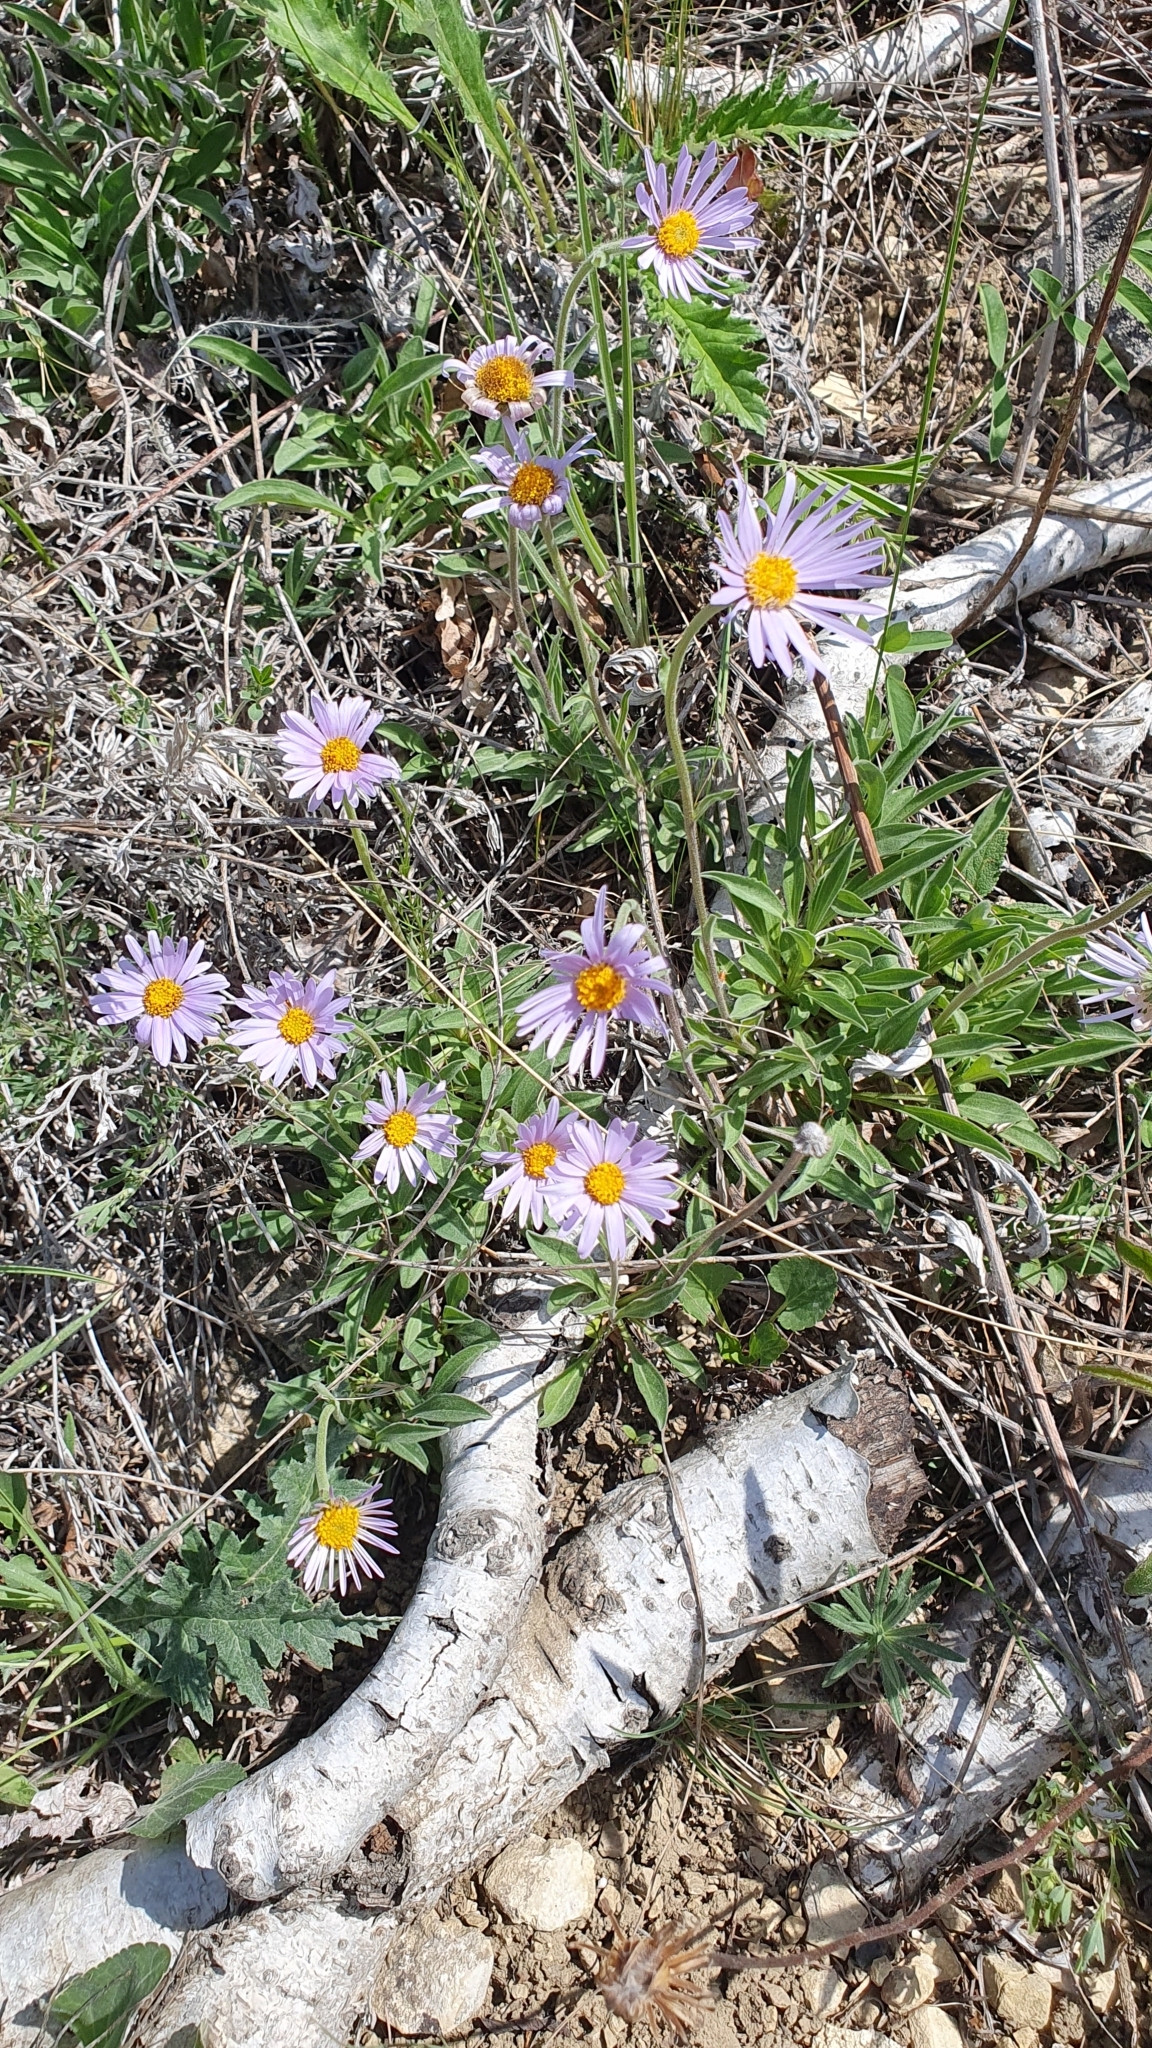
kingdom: Plantae
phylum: Tracheophyta
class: Magnoliopsida
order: Asterales
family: Asteraceae
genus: Aster
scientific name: Aster alpinus
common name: Alpine aster
